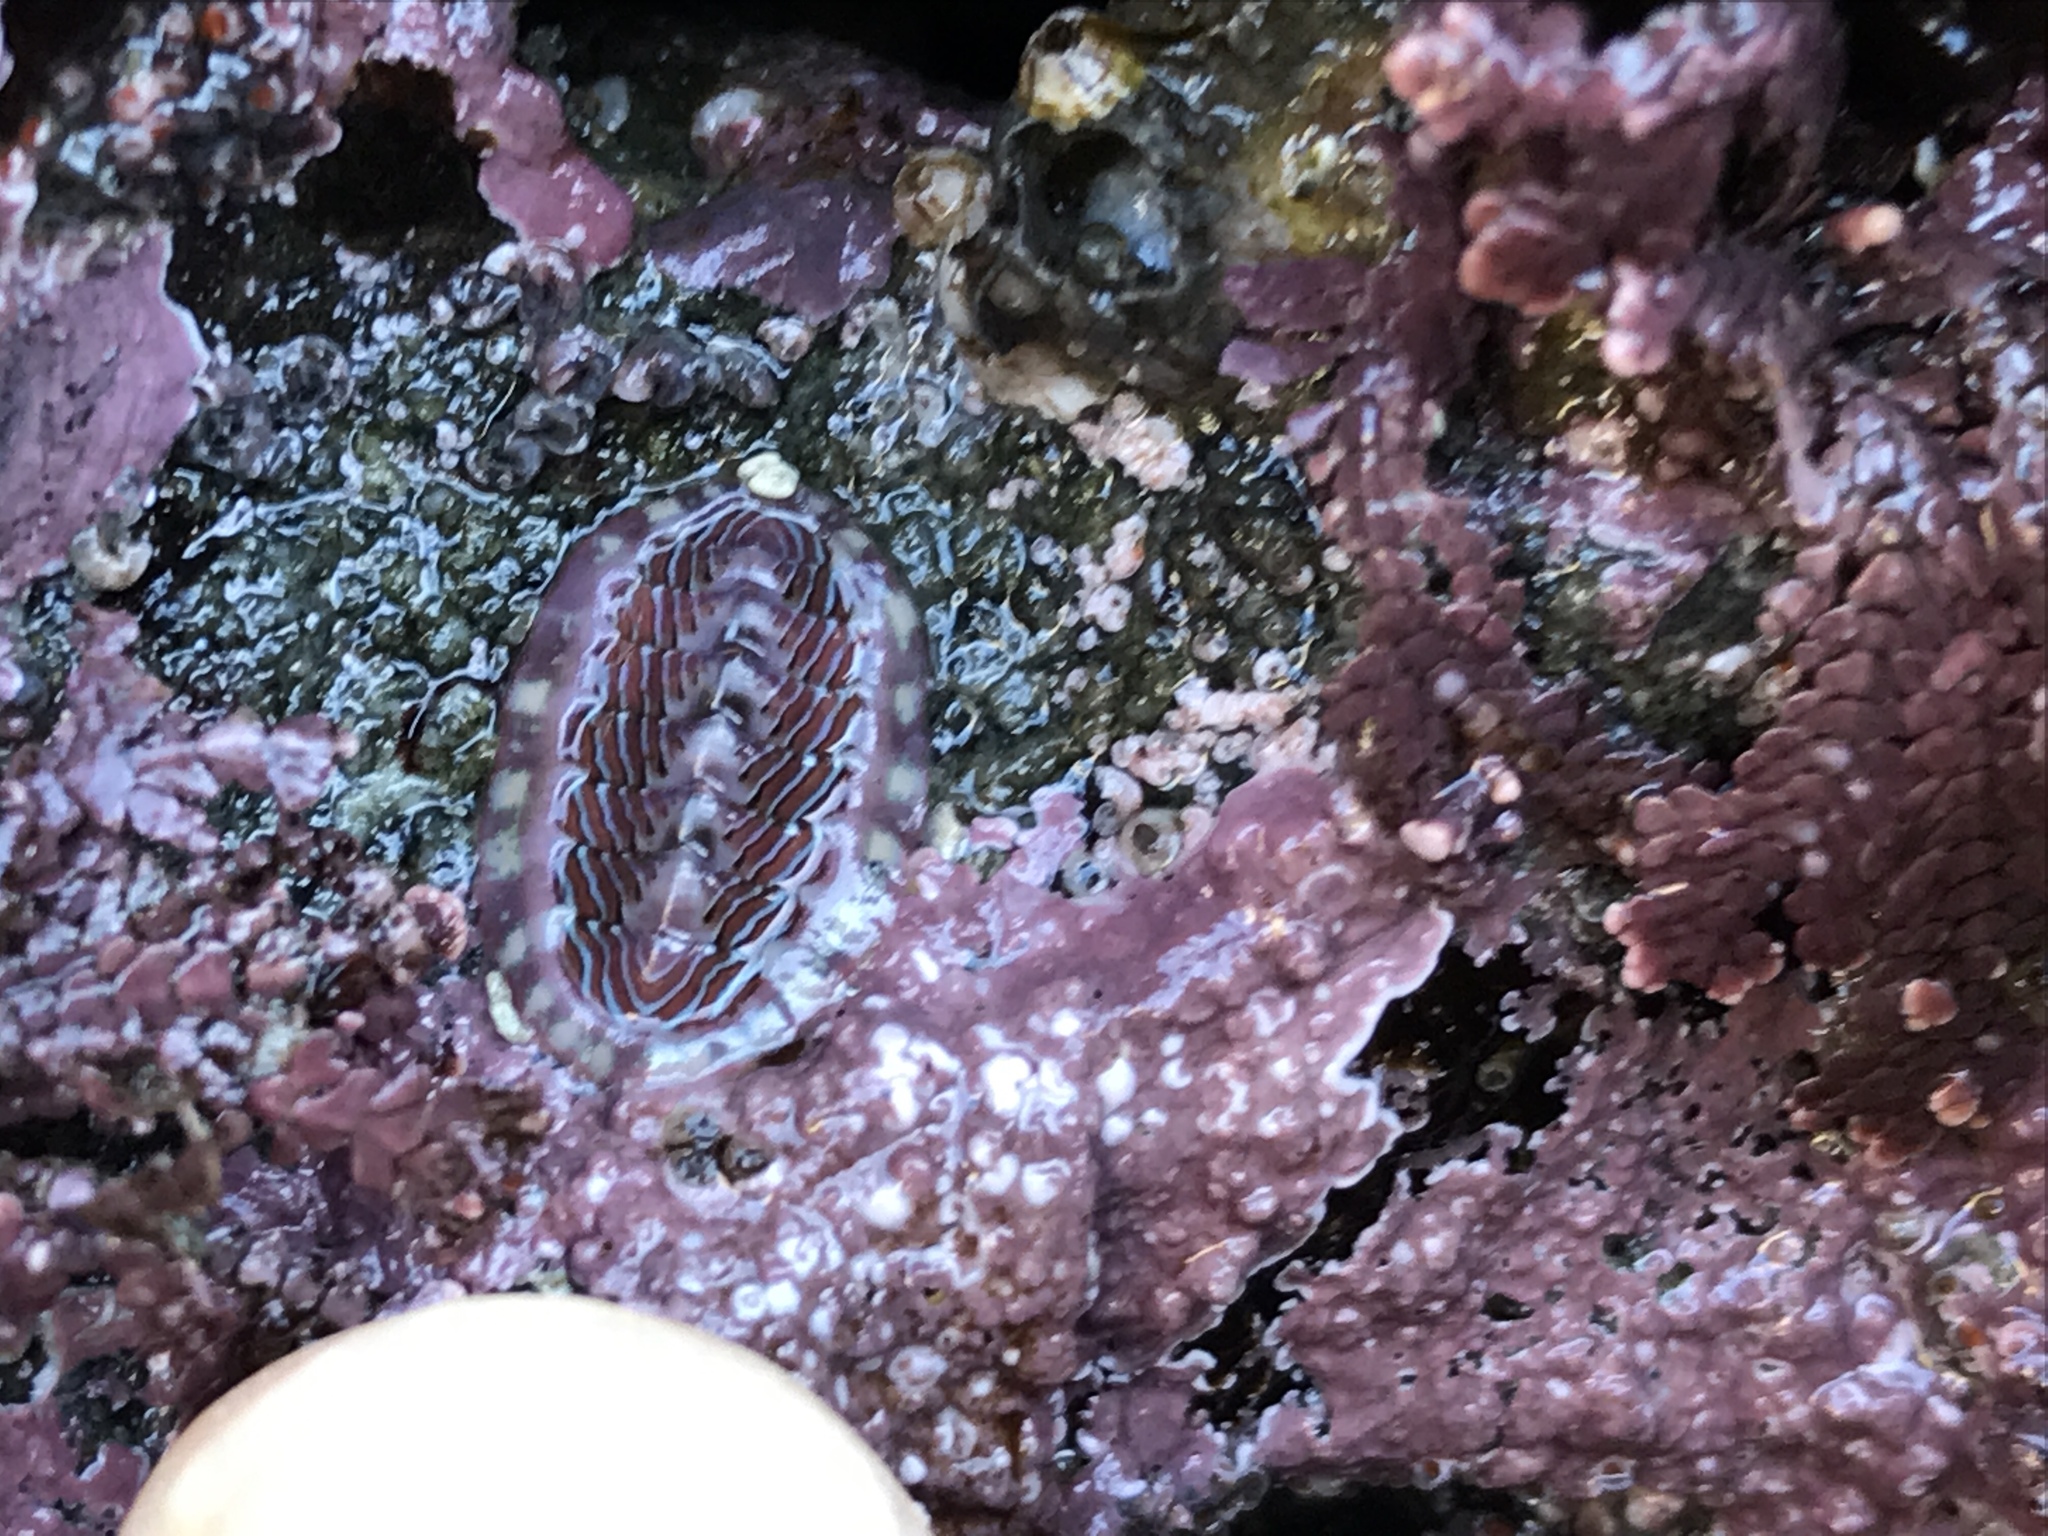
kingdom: Animalia
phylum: Mollusca
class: Polyplacophora
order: Chitonida
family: Tonicellidae
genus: Tonicella
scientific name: Tonicella lineata
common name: Lined chiton
